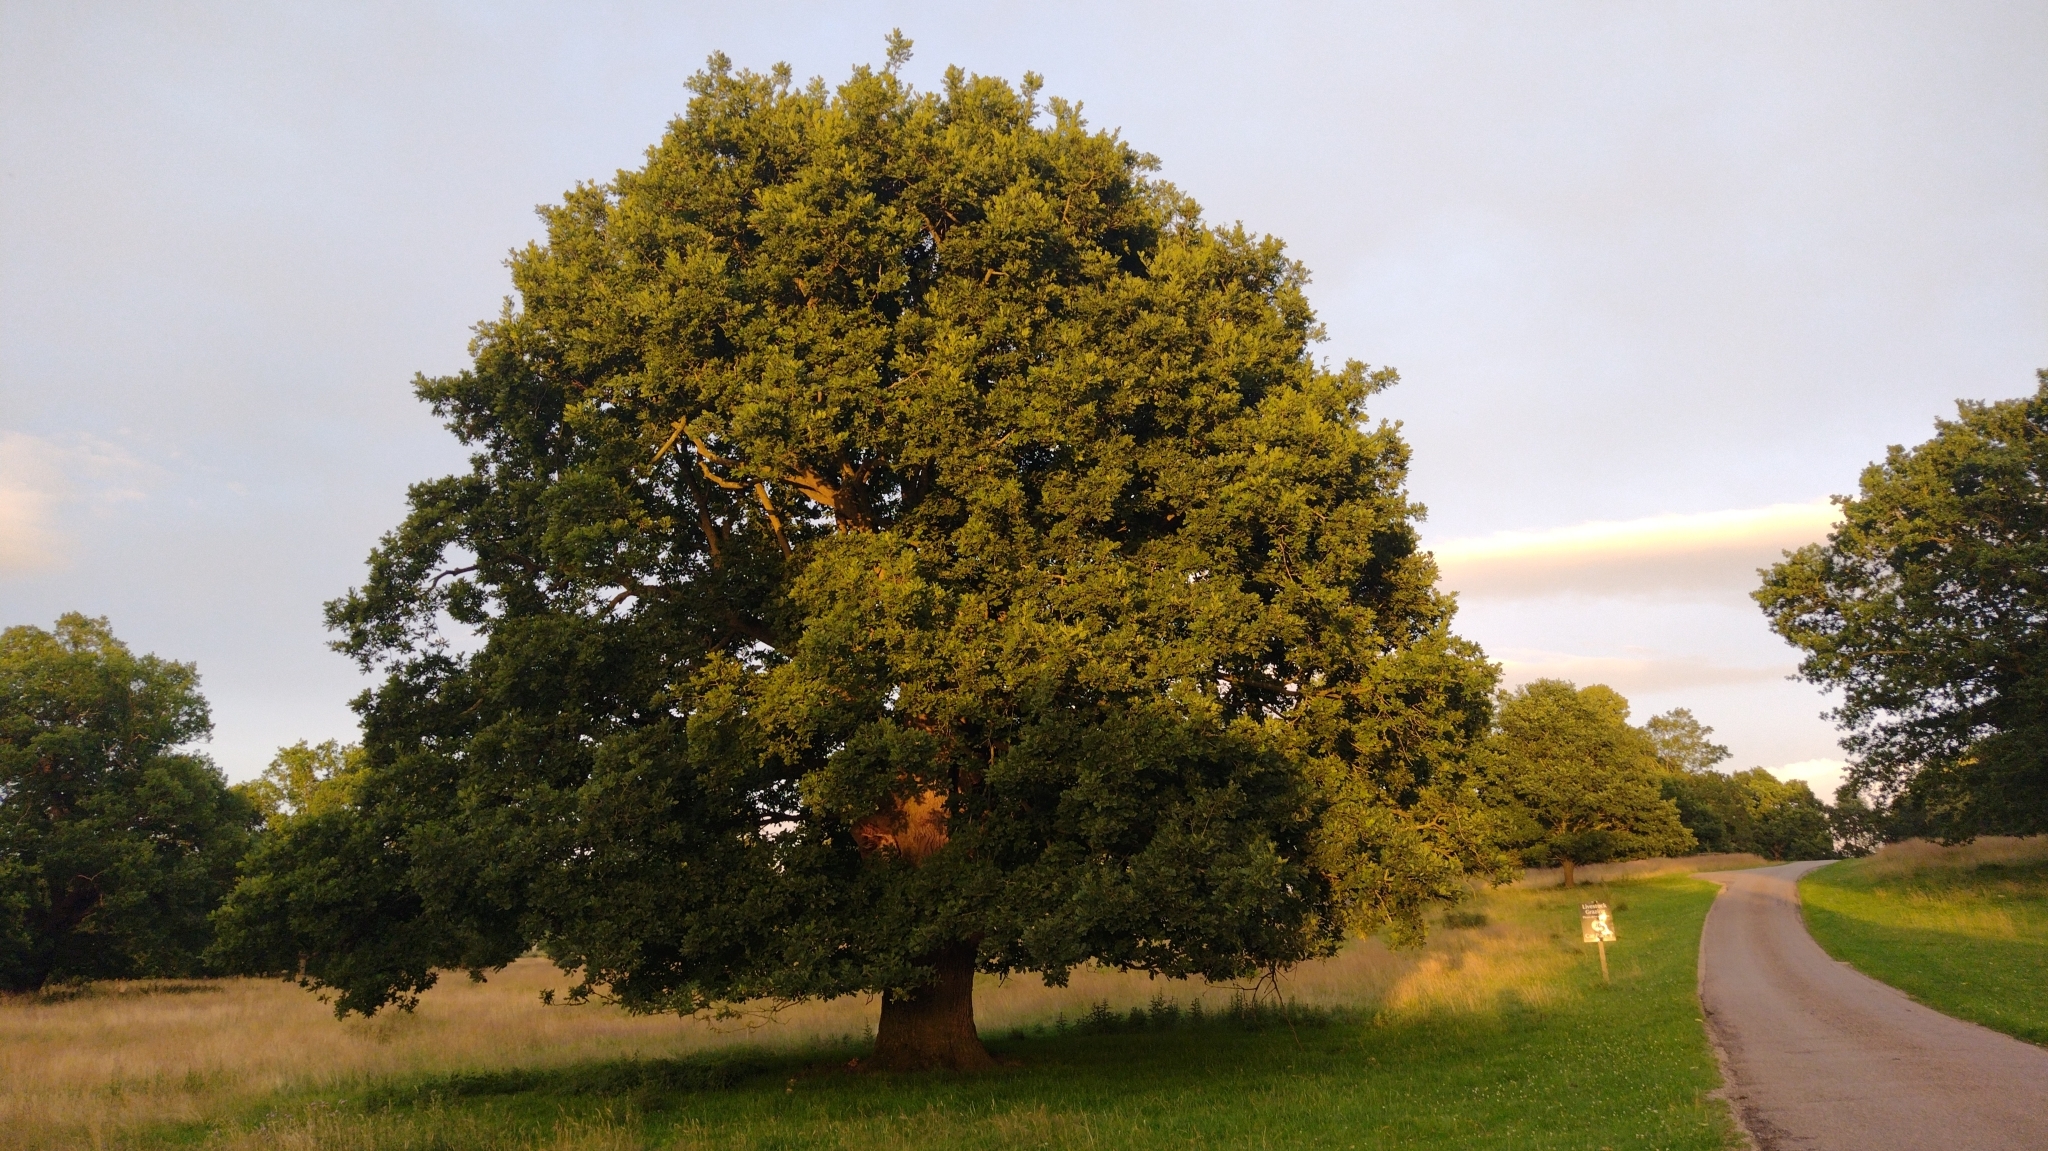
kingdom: Plantae
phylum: Tracheophyta
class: Magnoliopsida
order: Fagales
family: Fagaceae
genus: Quercus
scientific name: Quercus robur
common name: Pedunculate oak
